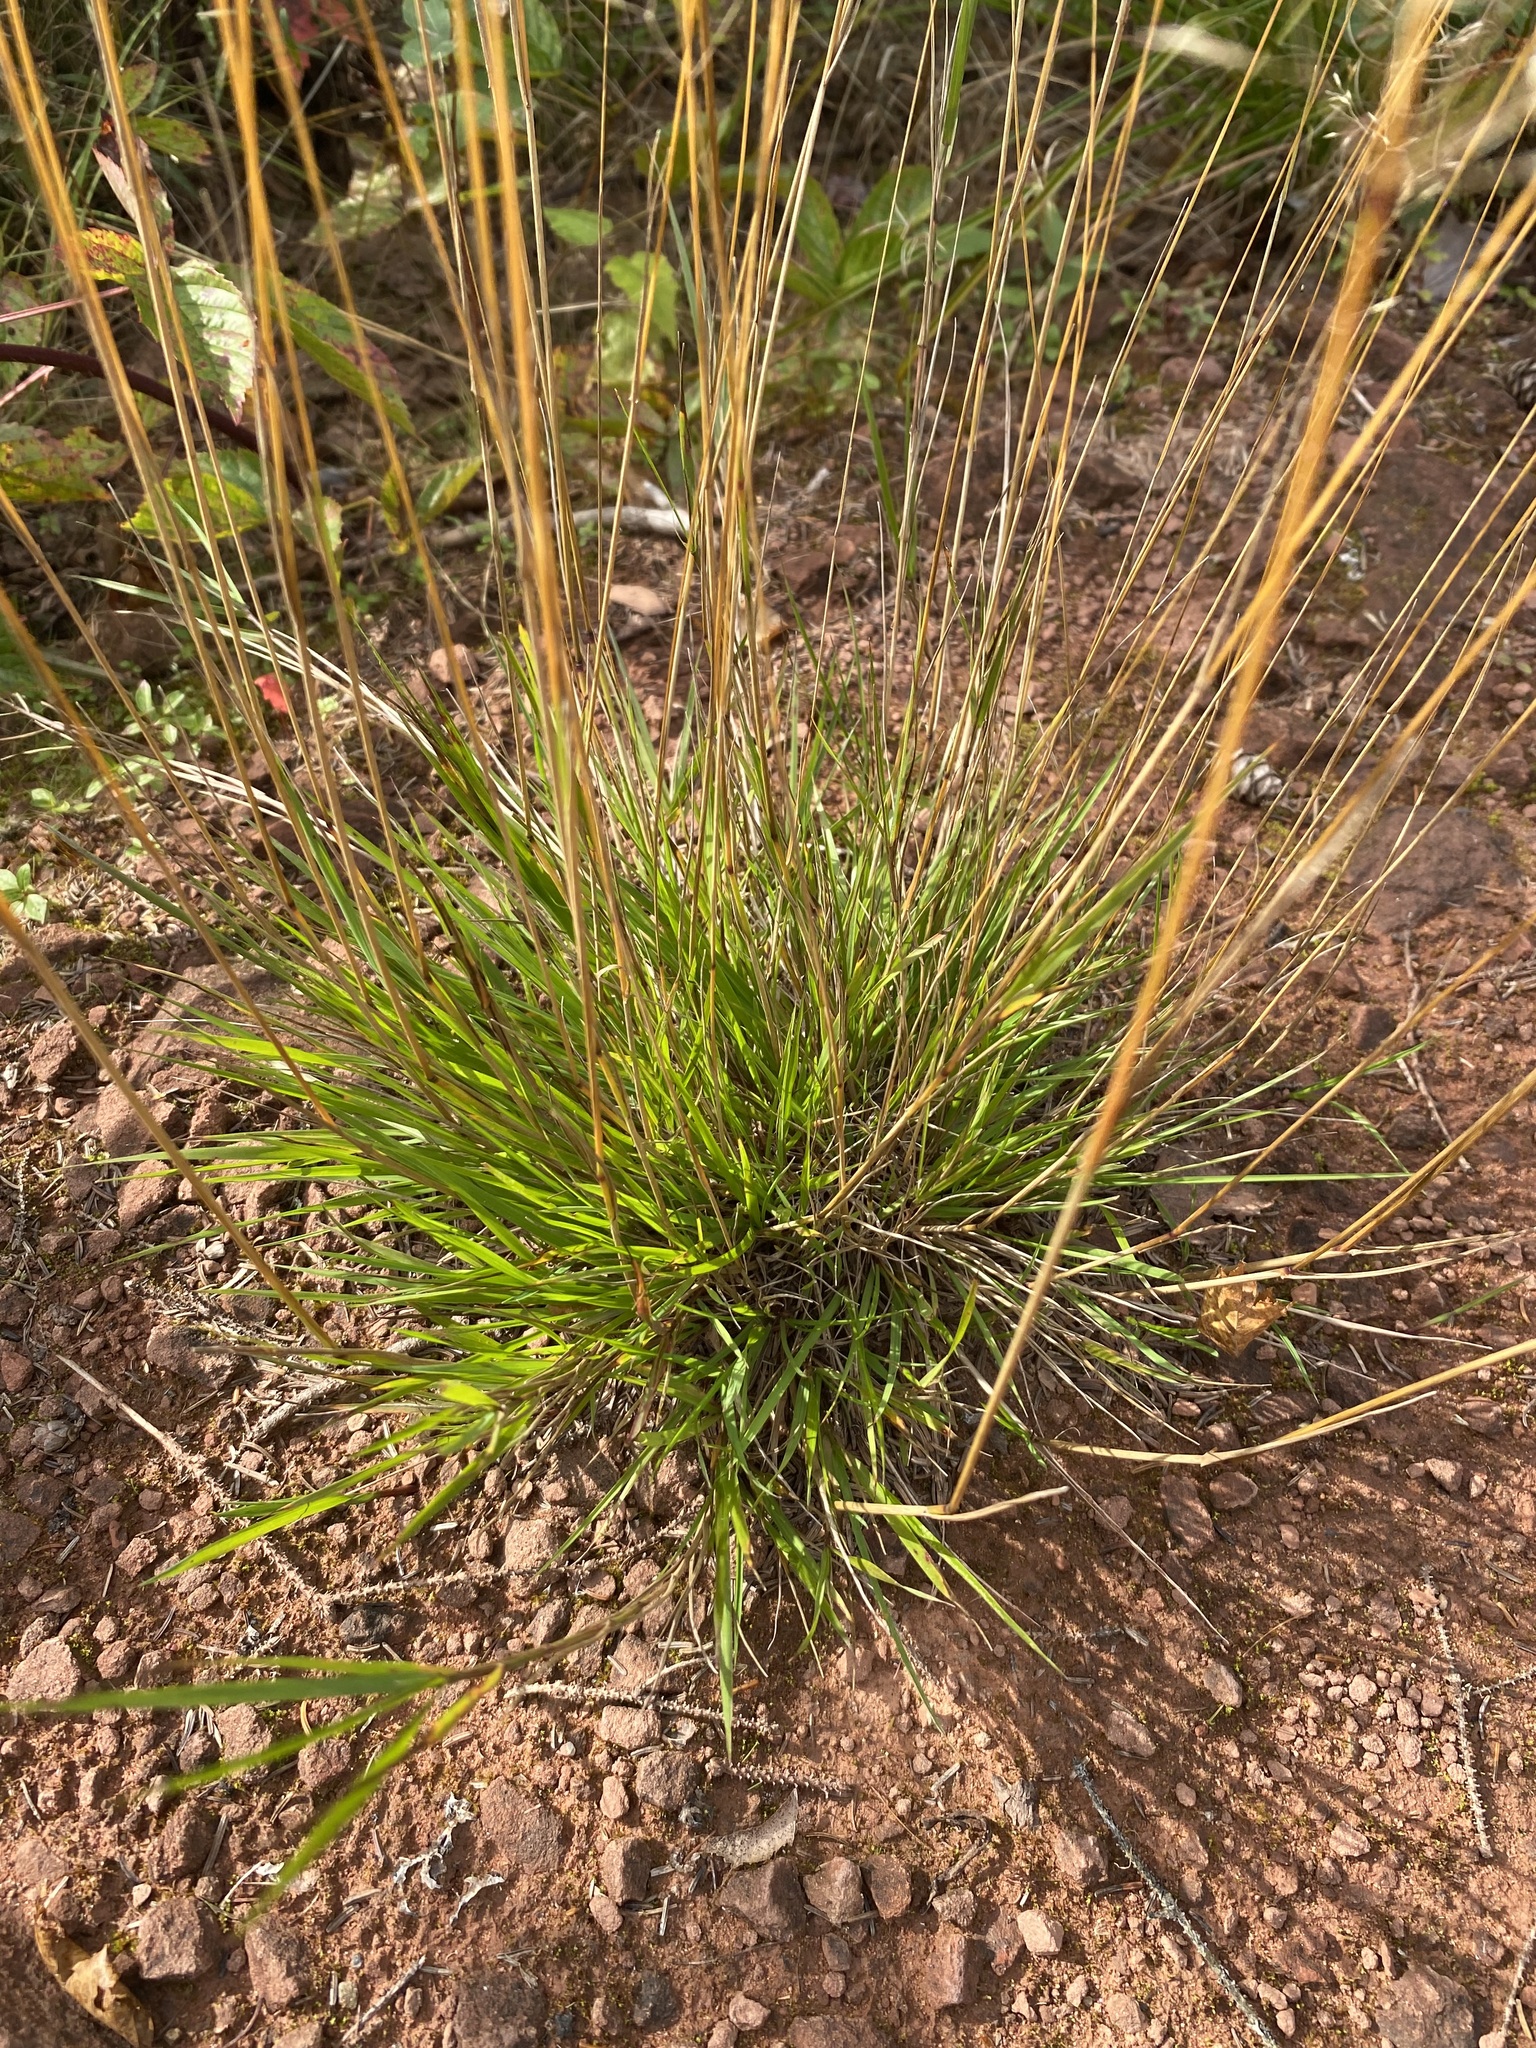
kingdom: Plantae
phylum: Tracheophyta
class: Liliopsida
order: Poales
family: Poaceae
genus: Agrostis
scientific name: Agrostis capillaris
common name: Colonial bentgrass
